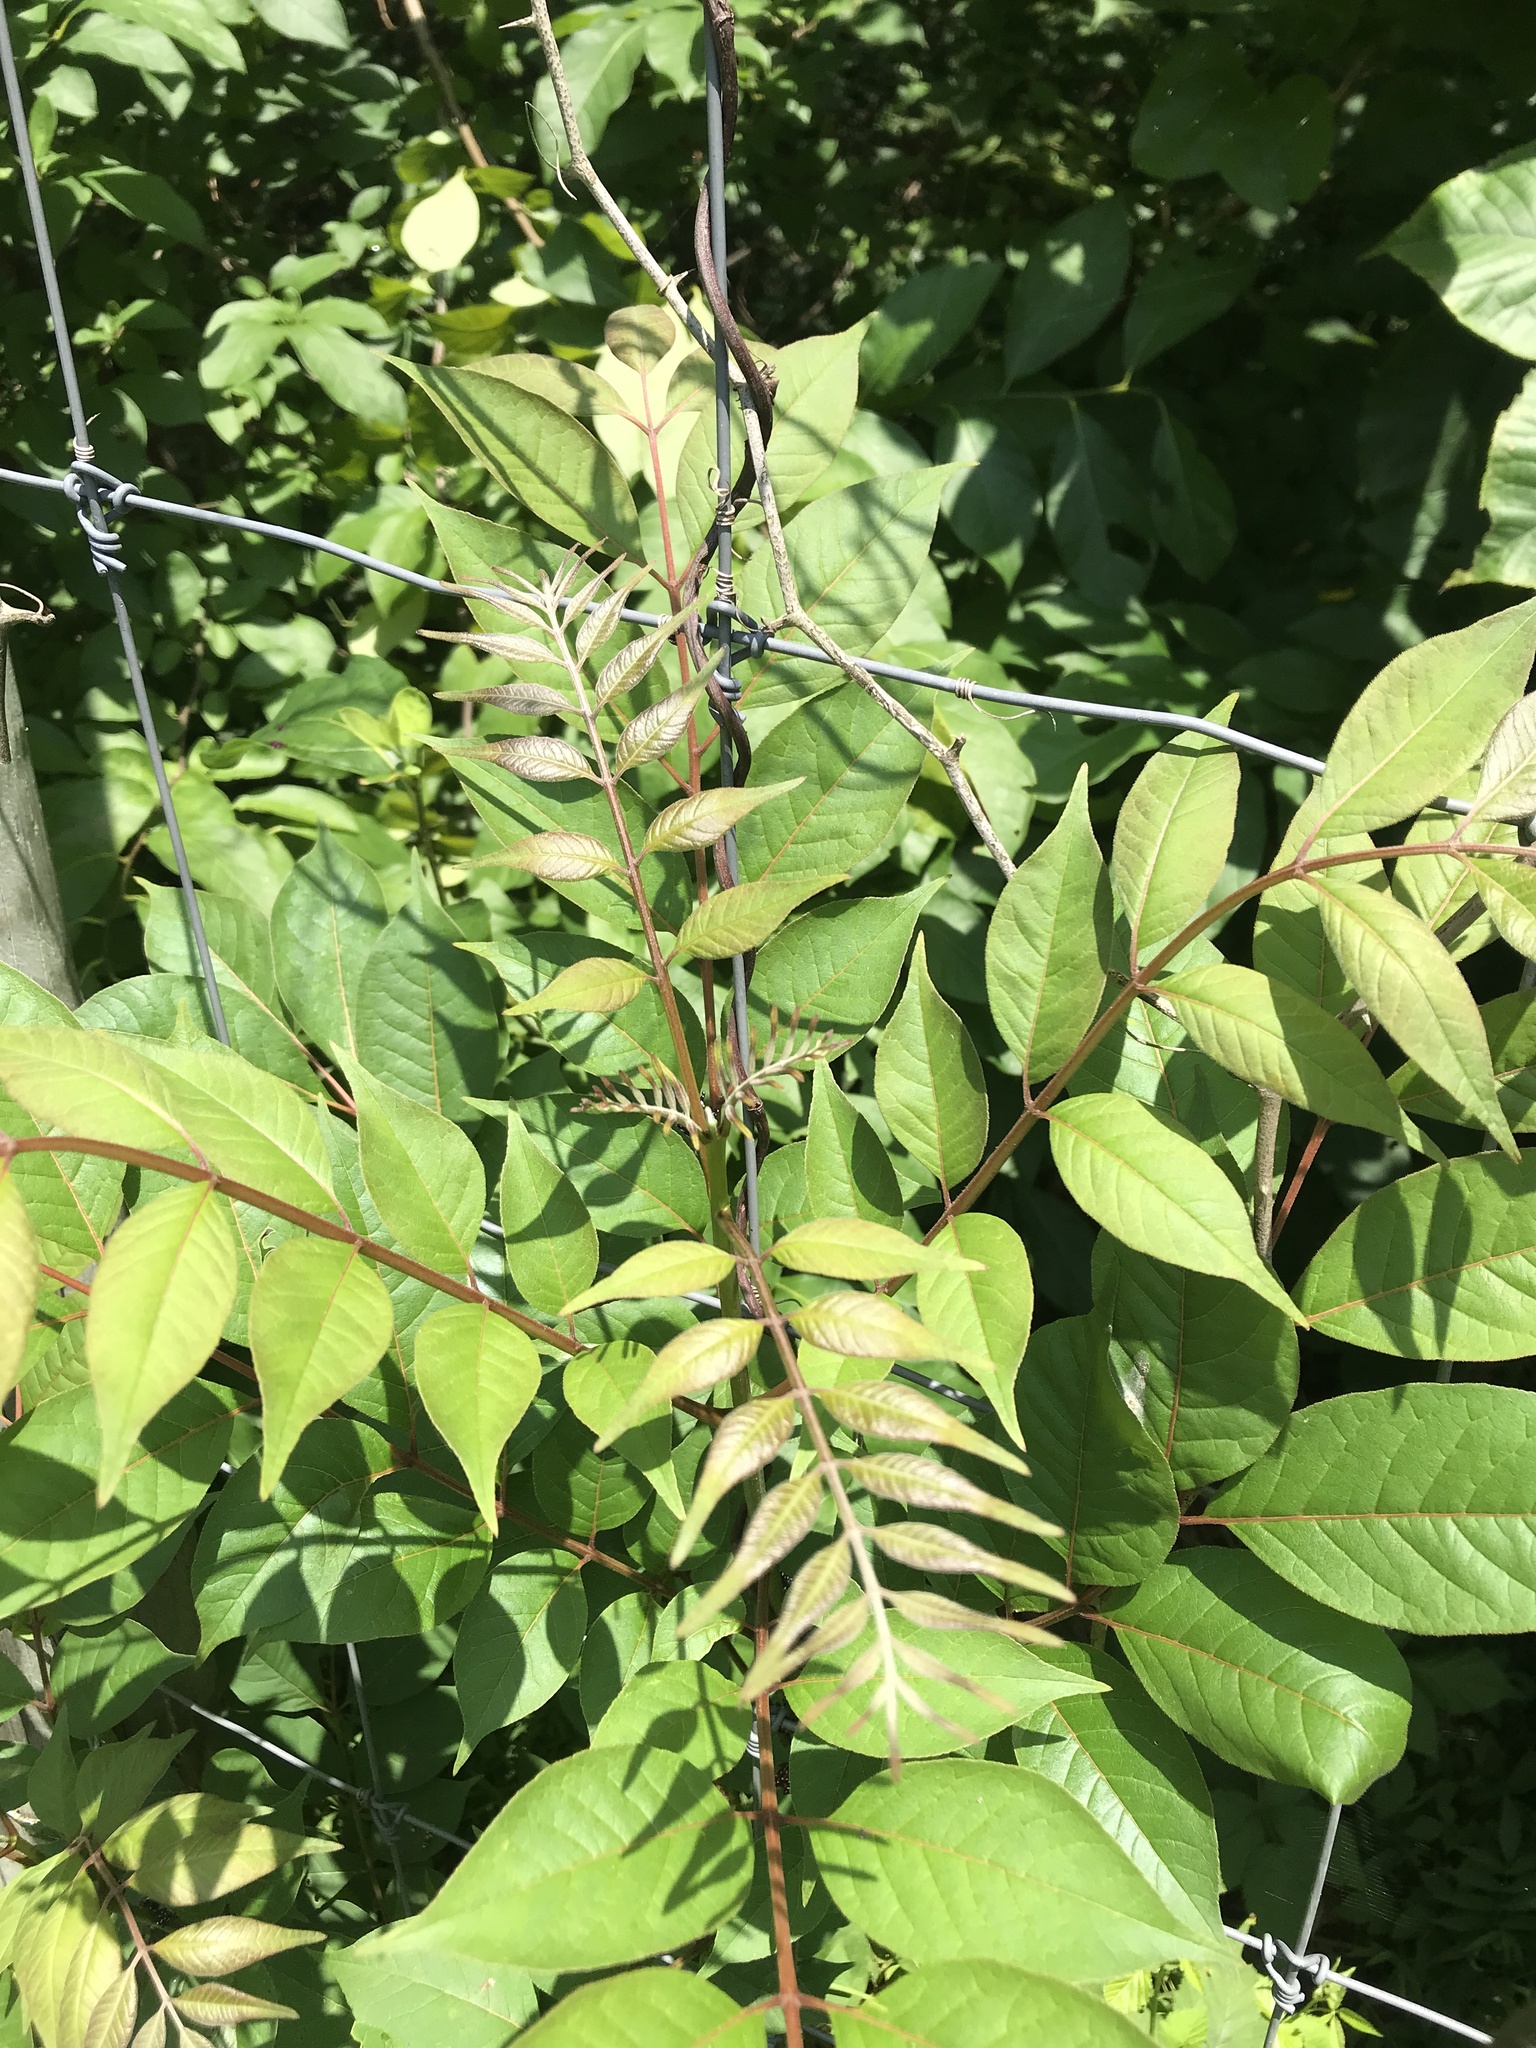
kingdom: Plantae
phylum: Tracheophyta
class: Magnoliopsida
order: Sapindales
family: Rutaceae
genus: Phellodendron
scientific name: Phellodendron amurense
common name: Amur corktree
